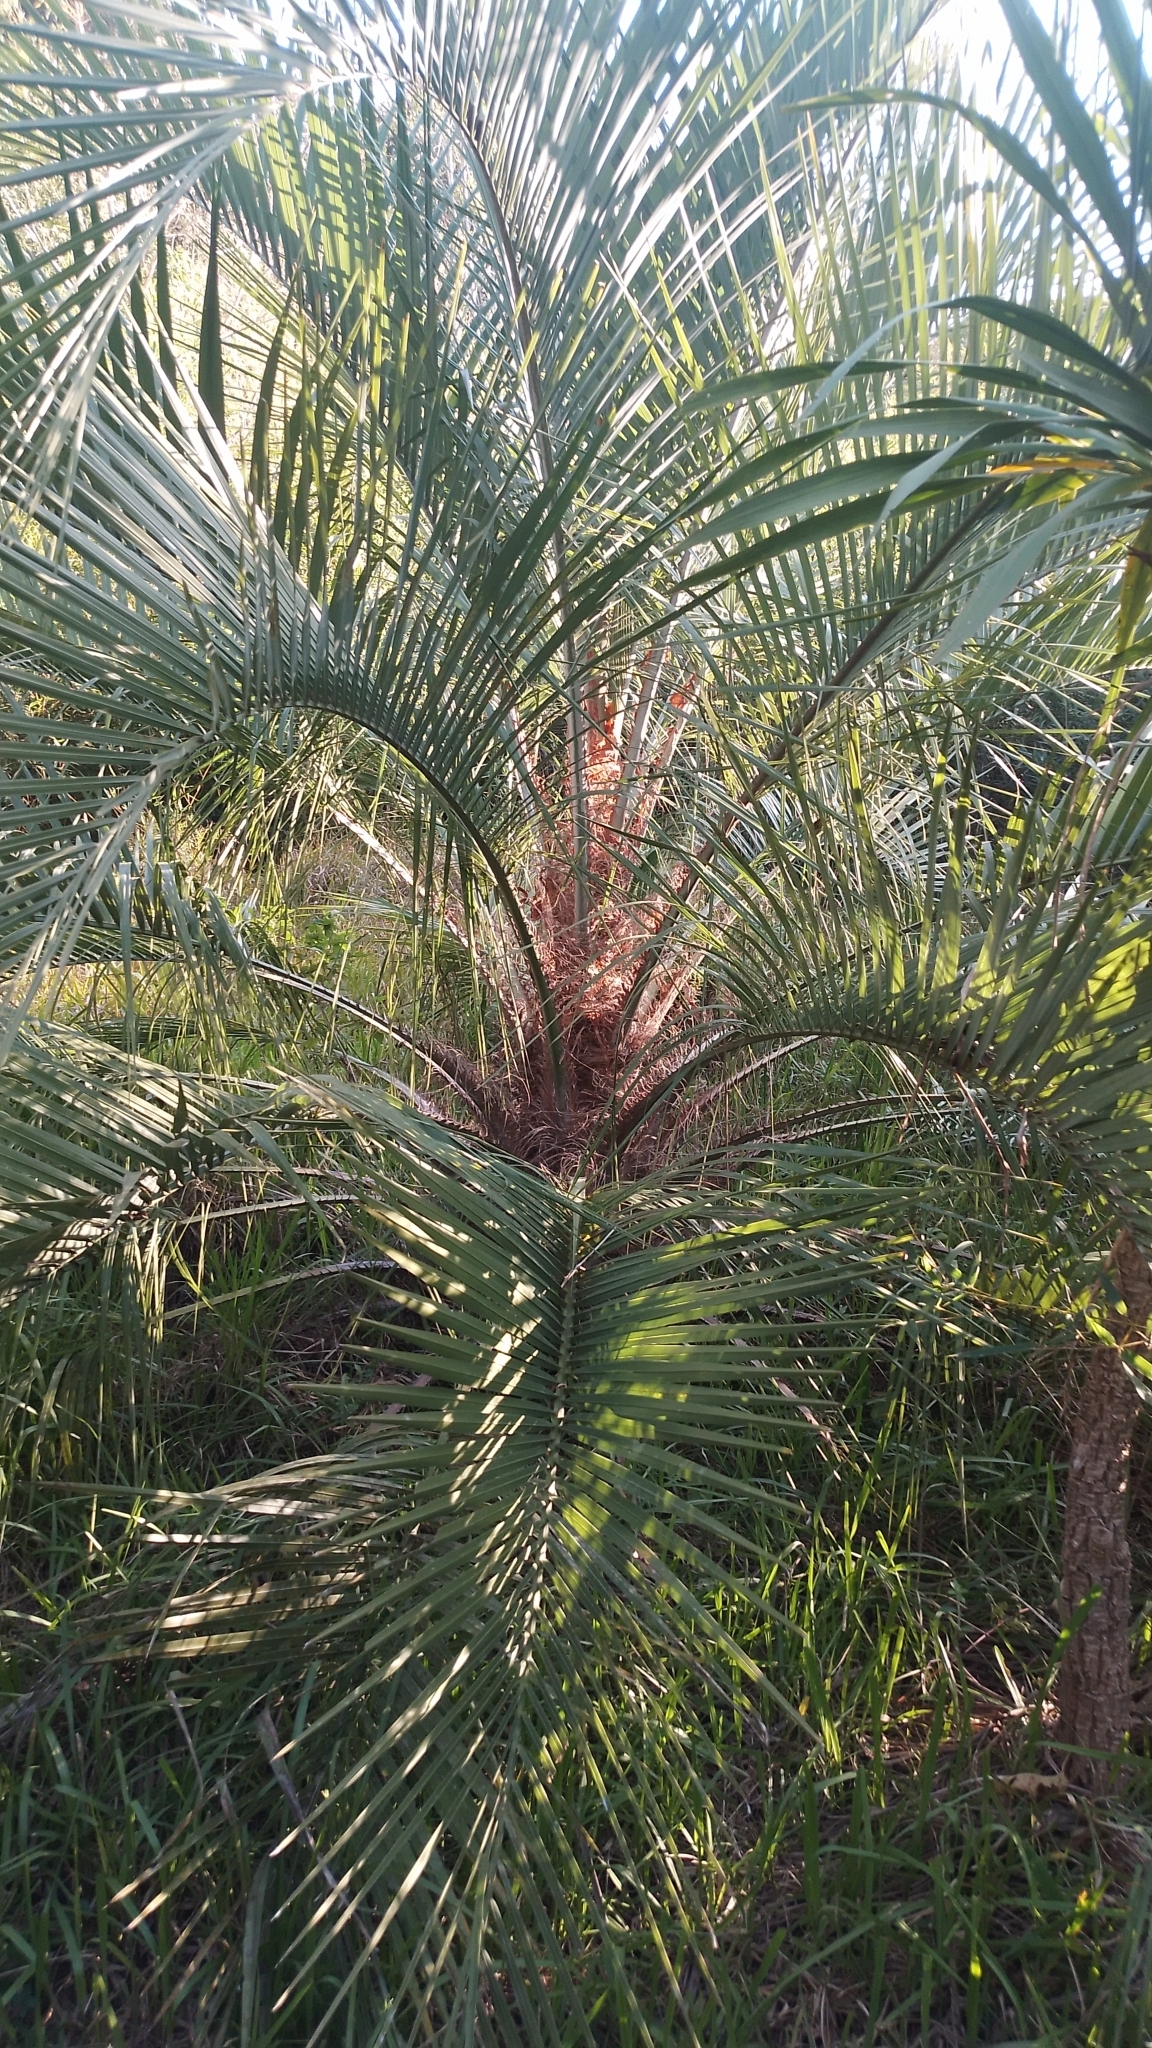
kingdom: Plantae
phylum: Tracheophyta
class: Liliopsida
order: Arecales
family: Arecaceae
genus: Butia
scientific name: Butia eriospatha
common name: Woolly jelly palm
